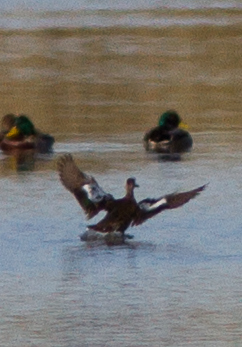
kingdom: Animalia
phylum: Chordata
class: Aves
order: Anseriformes
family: Anatidae
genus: Spatula
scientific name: Spatula cyanoptera
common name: Cinnamon teal
